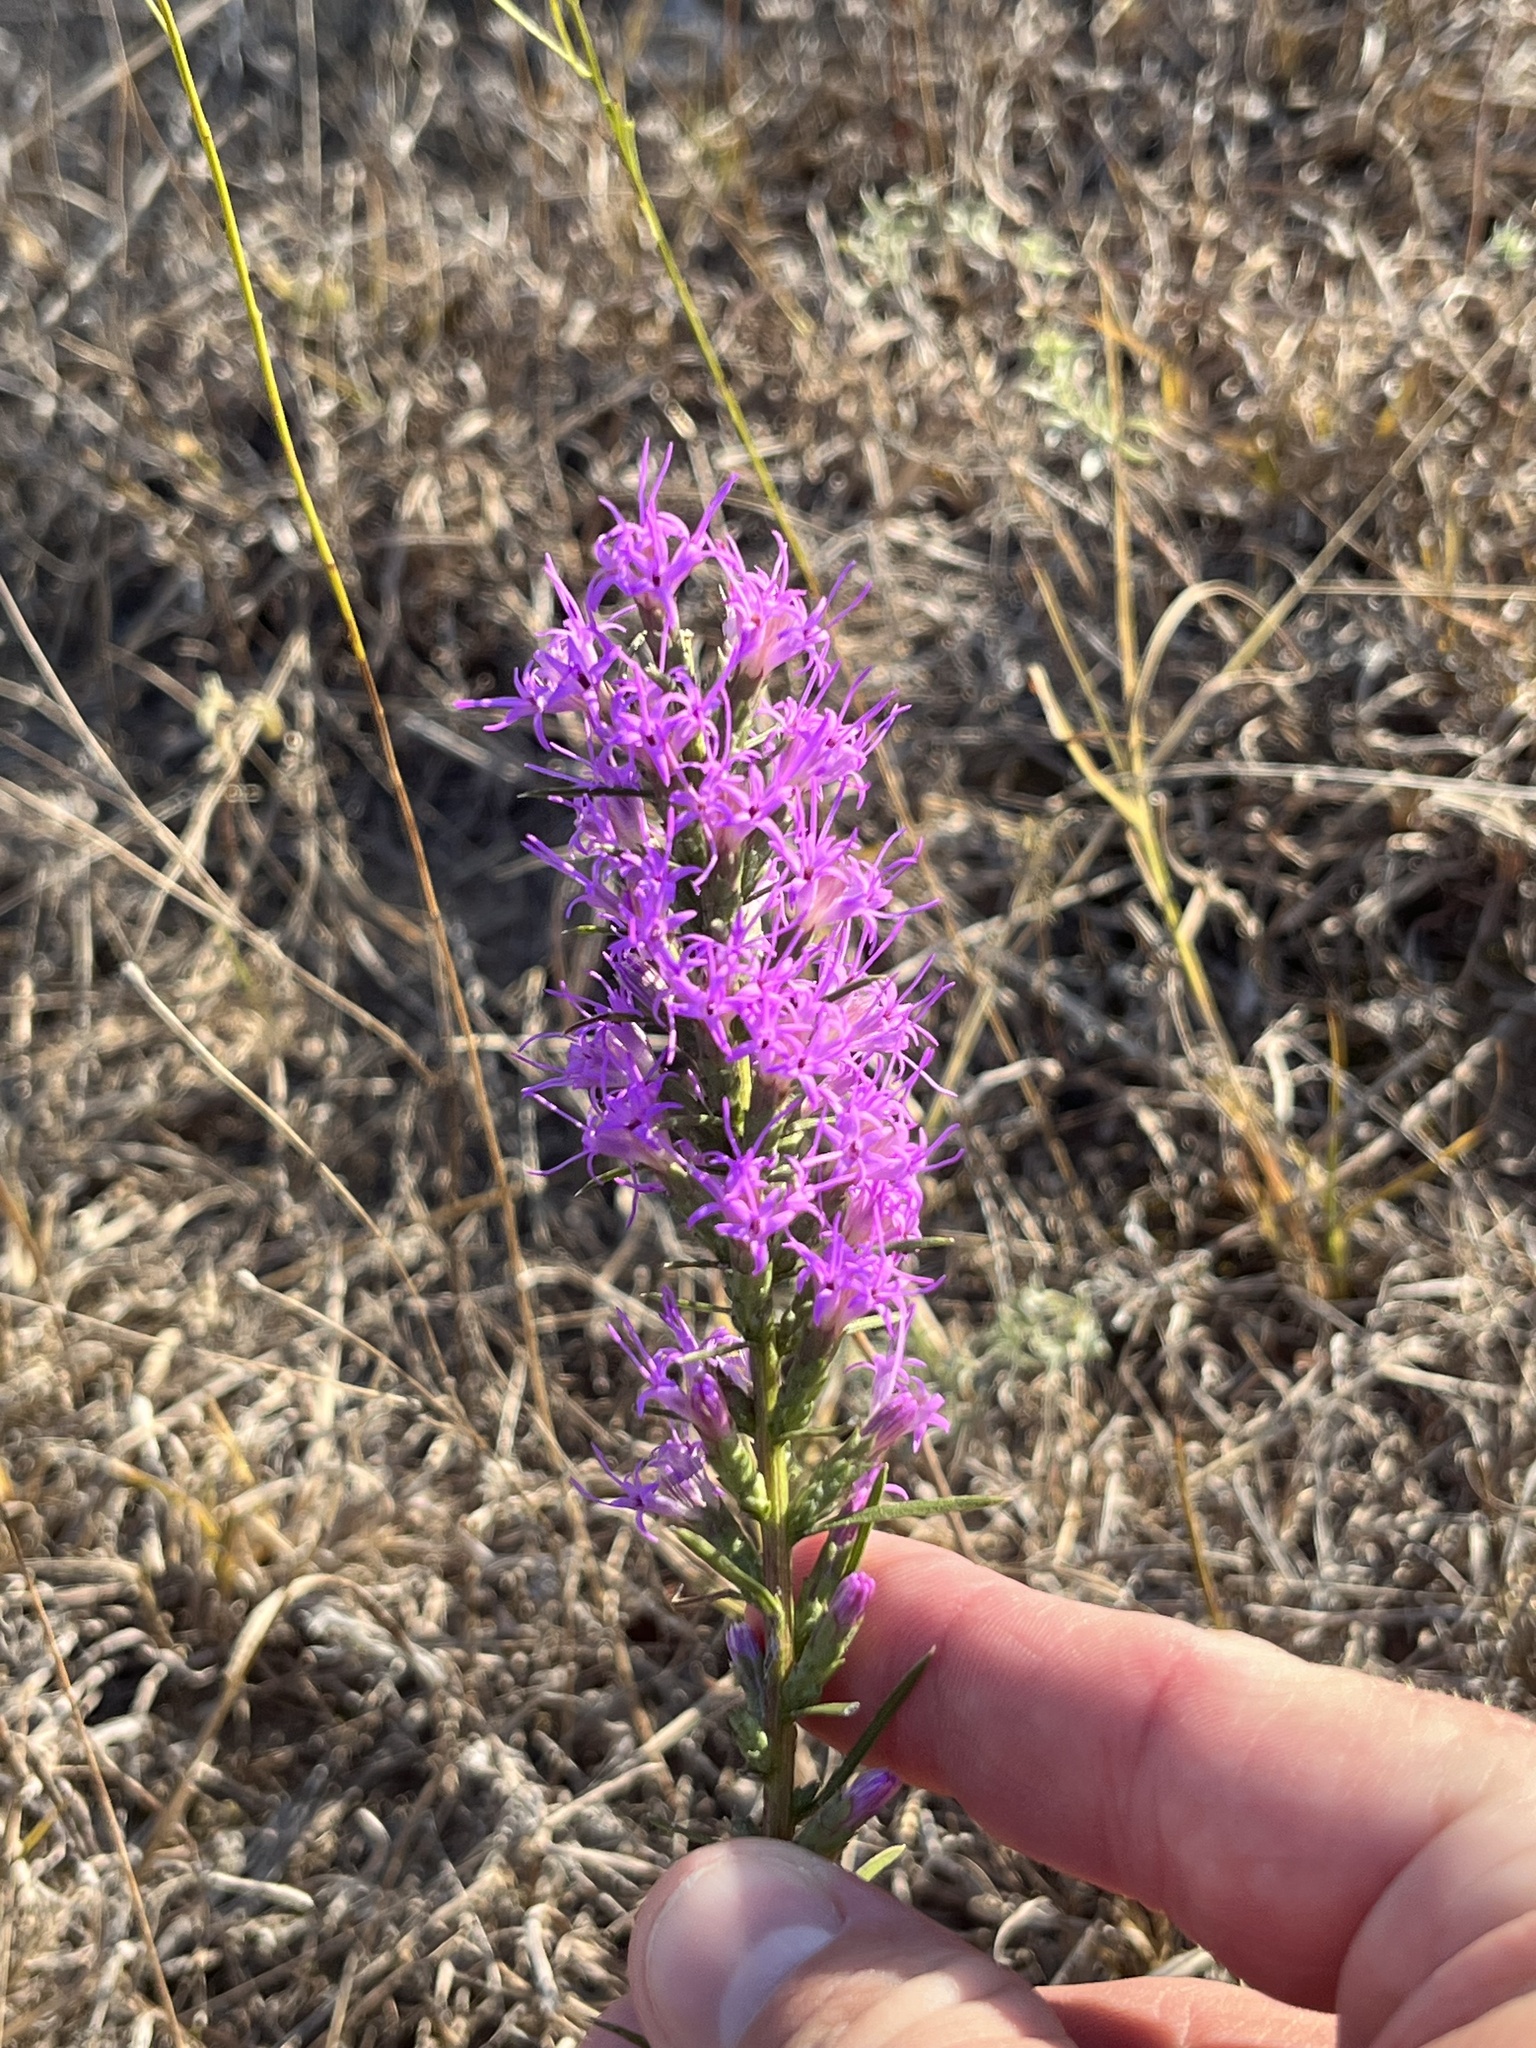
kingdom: Plantae
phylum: Tracheophyta
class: Magnoliopsida
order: Asterales
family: Asteraceae
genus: Liatris
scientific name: Liatris punctata
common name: Dotted gayfeather
